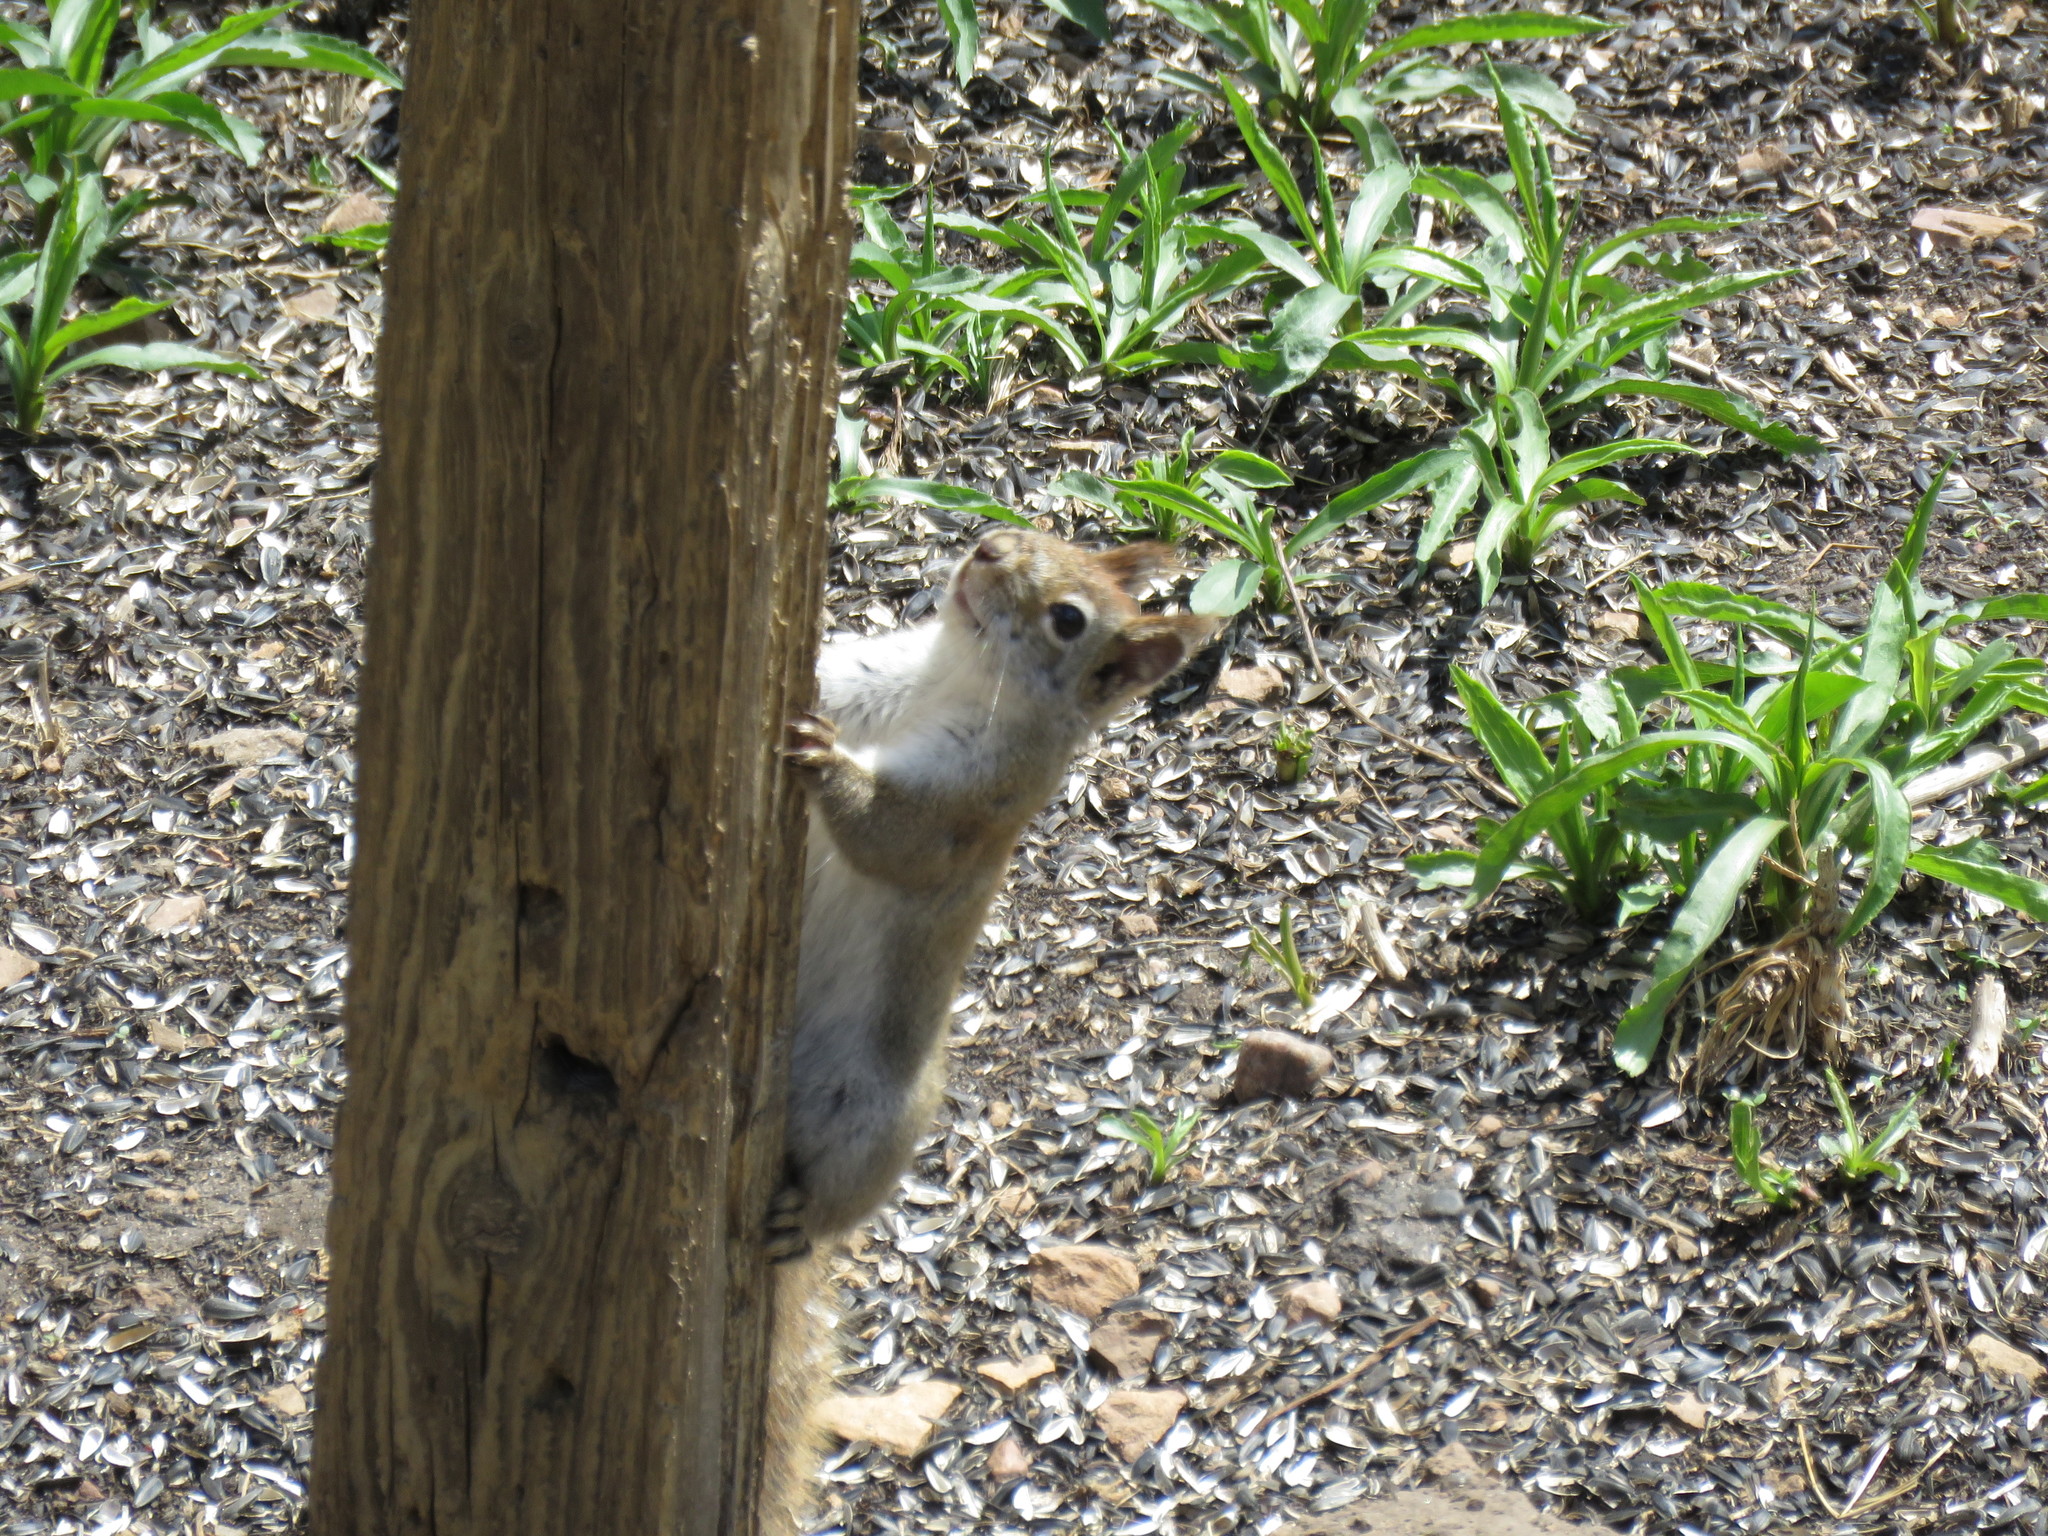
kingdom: Animalia
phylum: Chordata
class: Mammalia
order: Rodentia
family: Sciuridae
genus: Tamiasciurus
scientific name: Tamiasciurus hudsonicus
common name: Red squirrel
